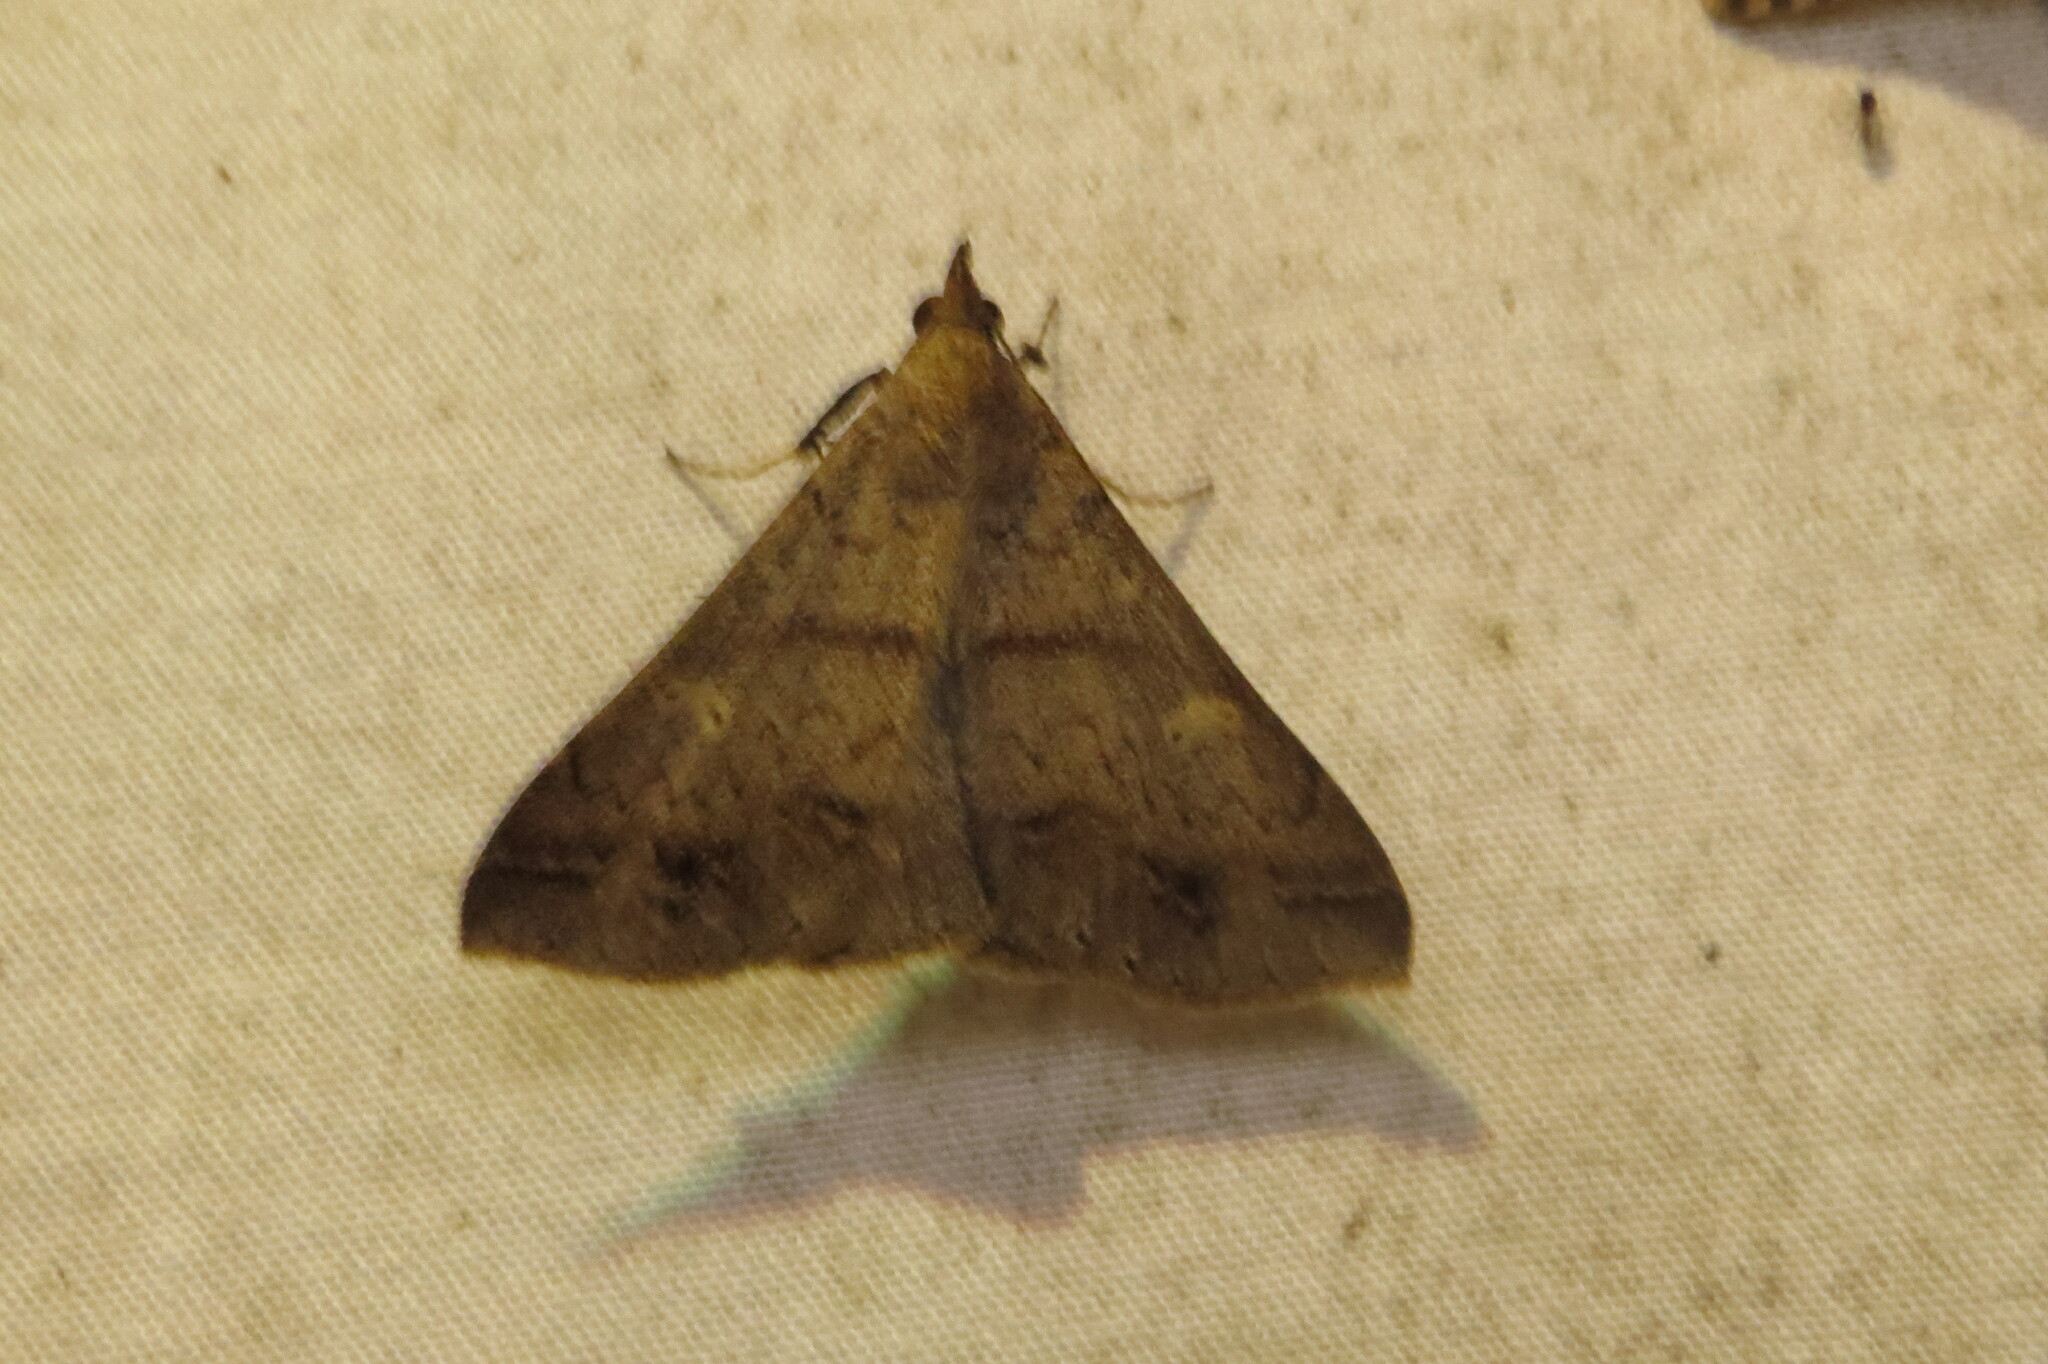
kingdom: Animalia
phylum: Arthropoda
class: Insecta
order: Lepidoptera
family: Erebidae
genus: Renia
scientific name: Renia discoloralis
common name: Discolored renia moth
